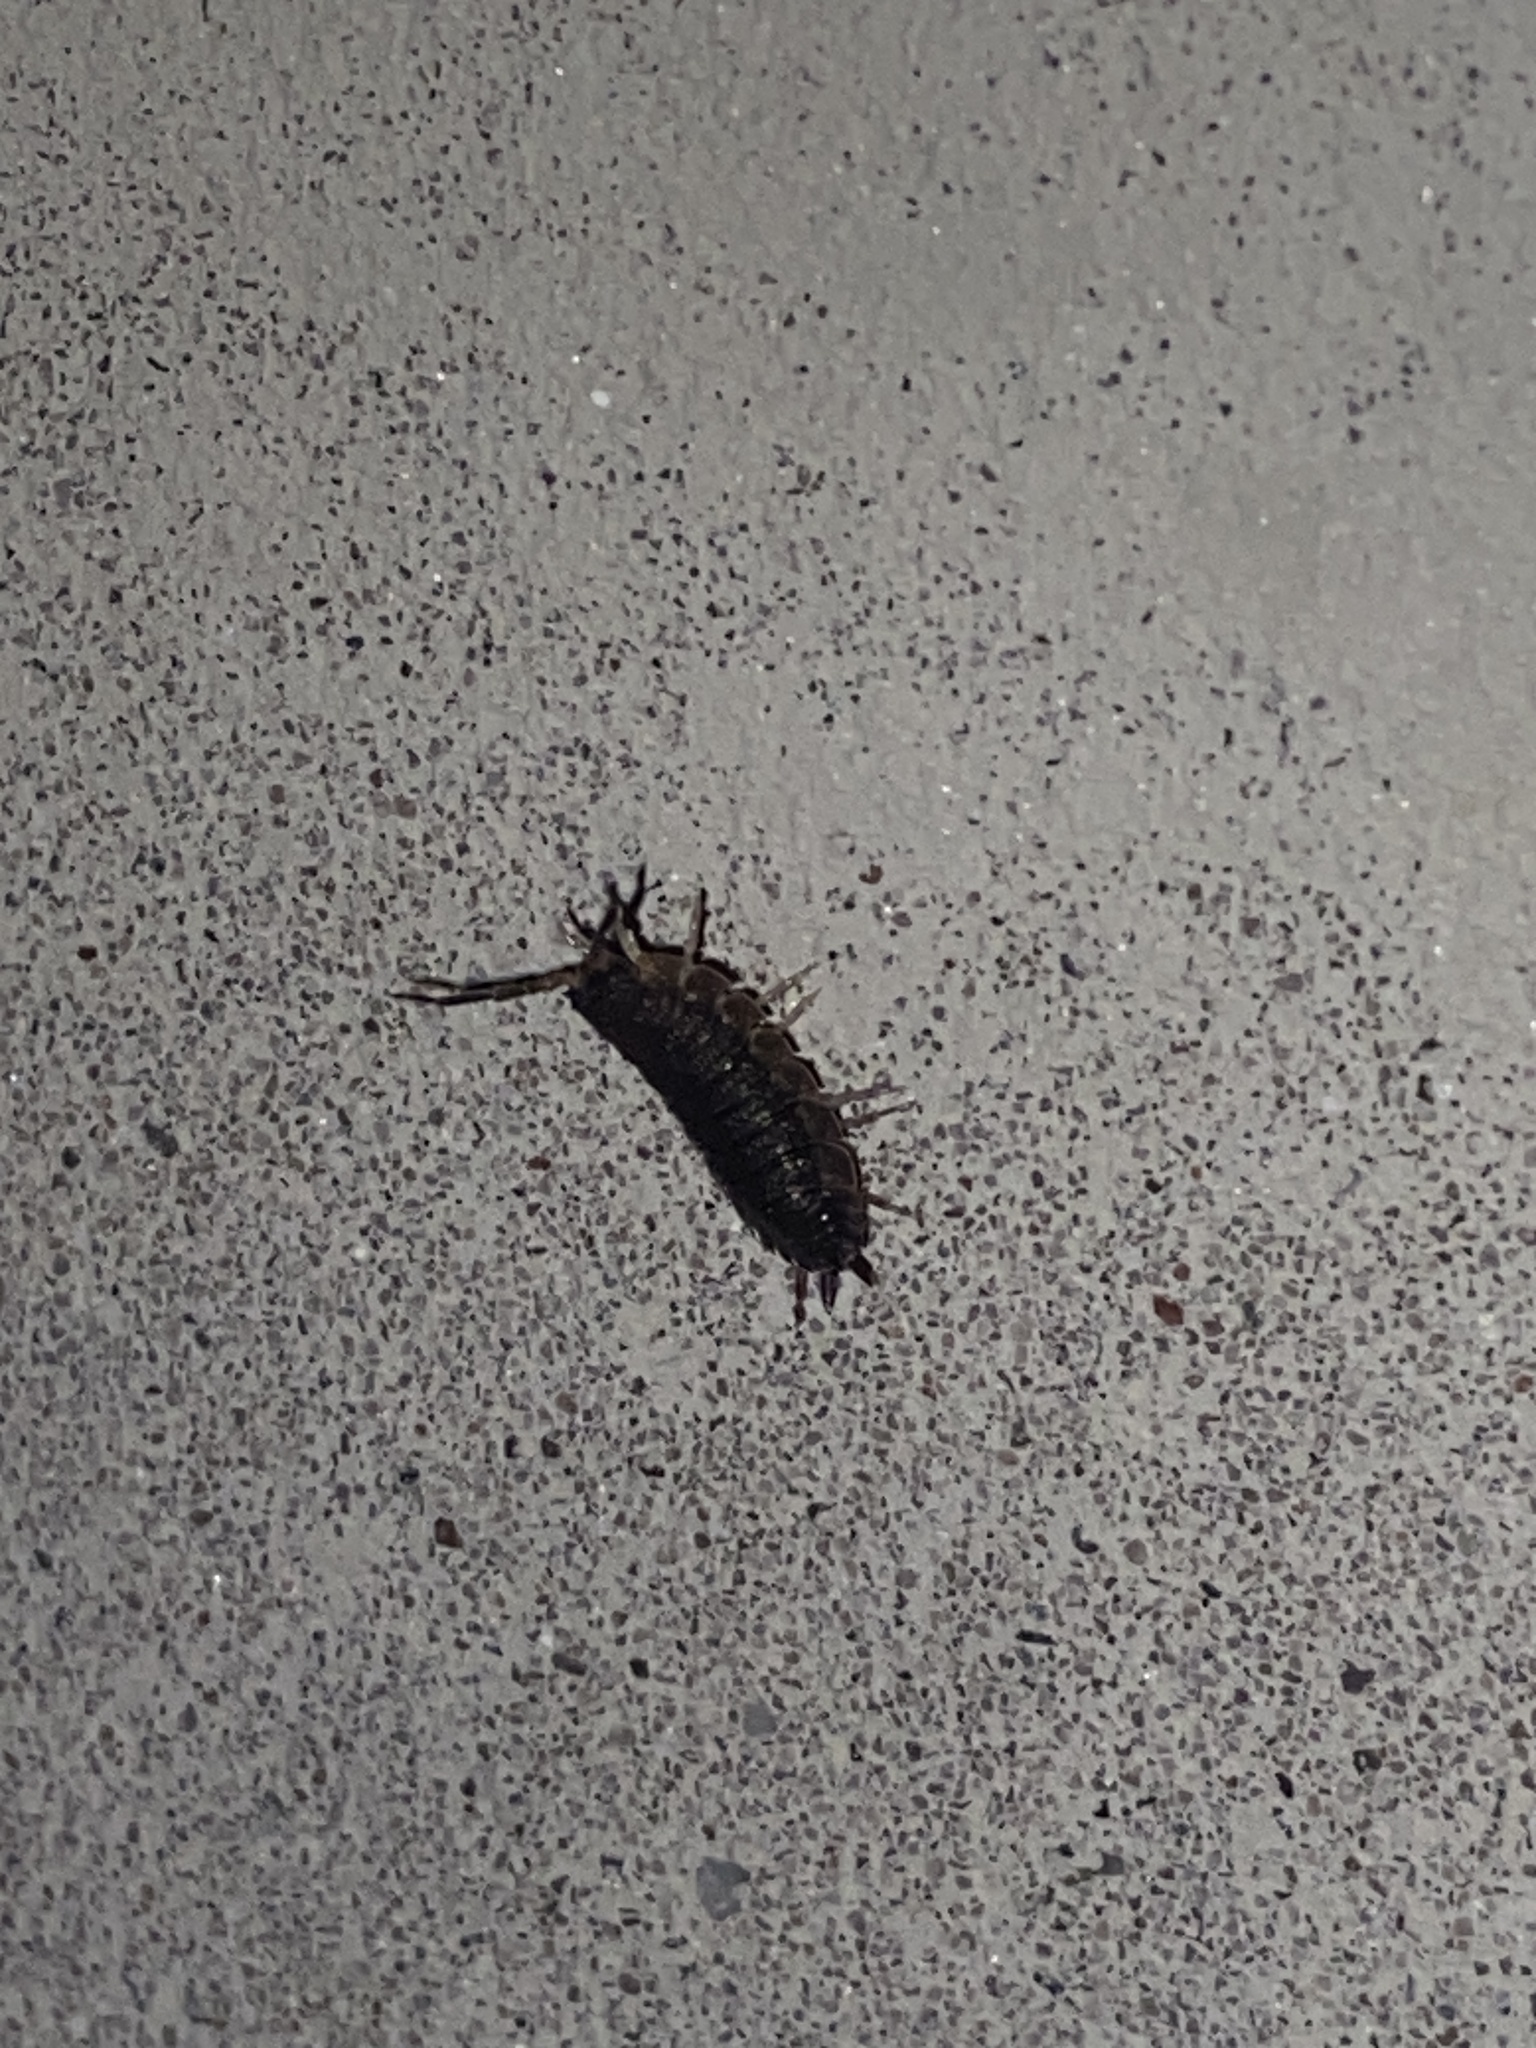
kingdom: Animalia
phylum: Arthropoda
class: Malacostraca
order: Isopoda
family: Porcellionidae
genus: Porcellio
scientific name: Porcellio scaber
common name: Common rough woodlouse
